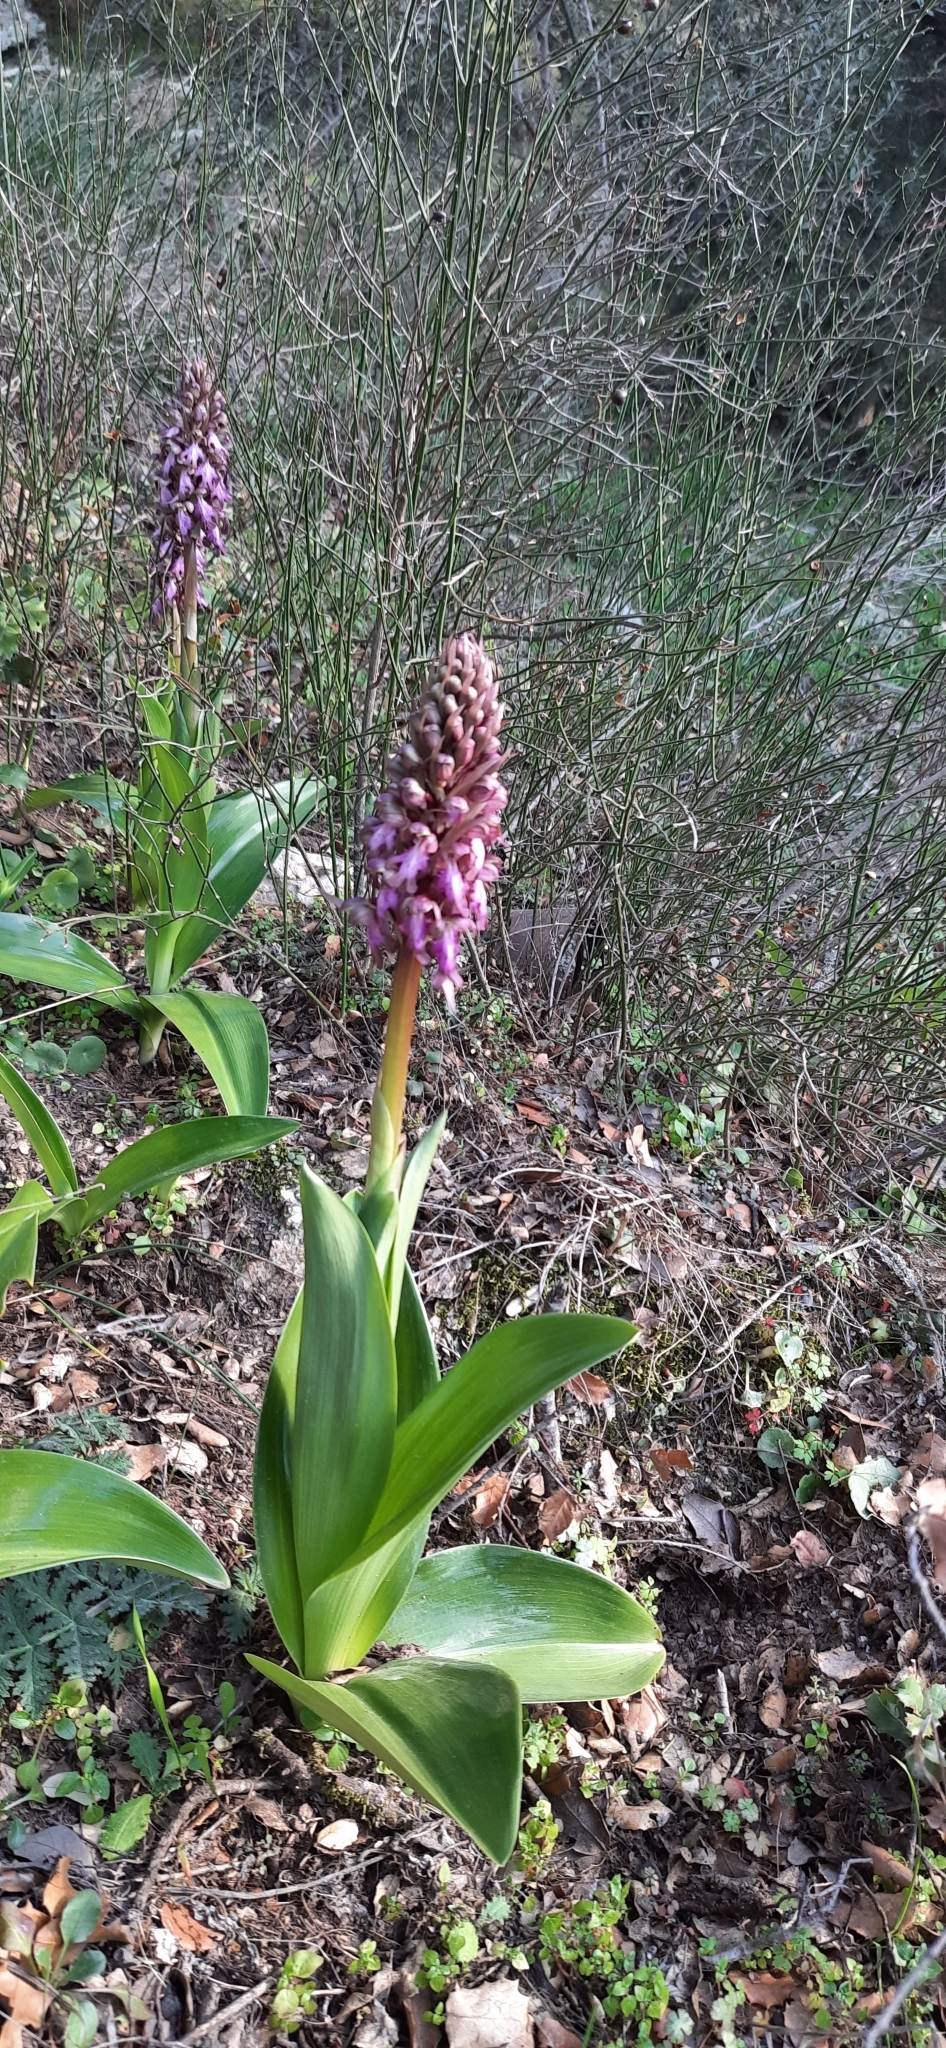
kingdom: Plantae
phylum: Tracheophyta
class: Liliopsida
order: Asparagales
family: Orchidaceae
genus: Himantoglossum
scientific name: Himantoglossum robertianum
